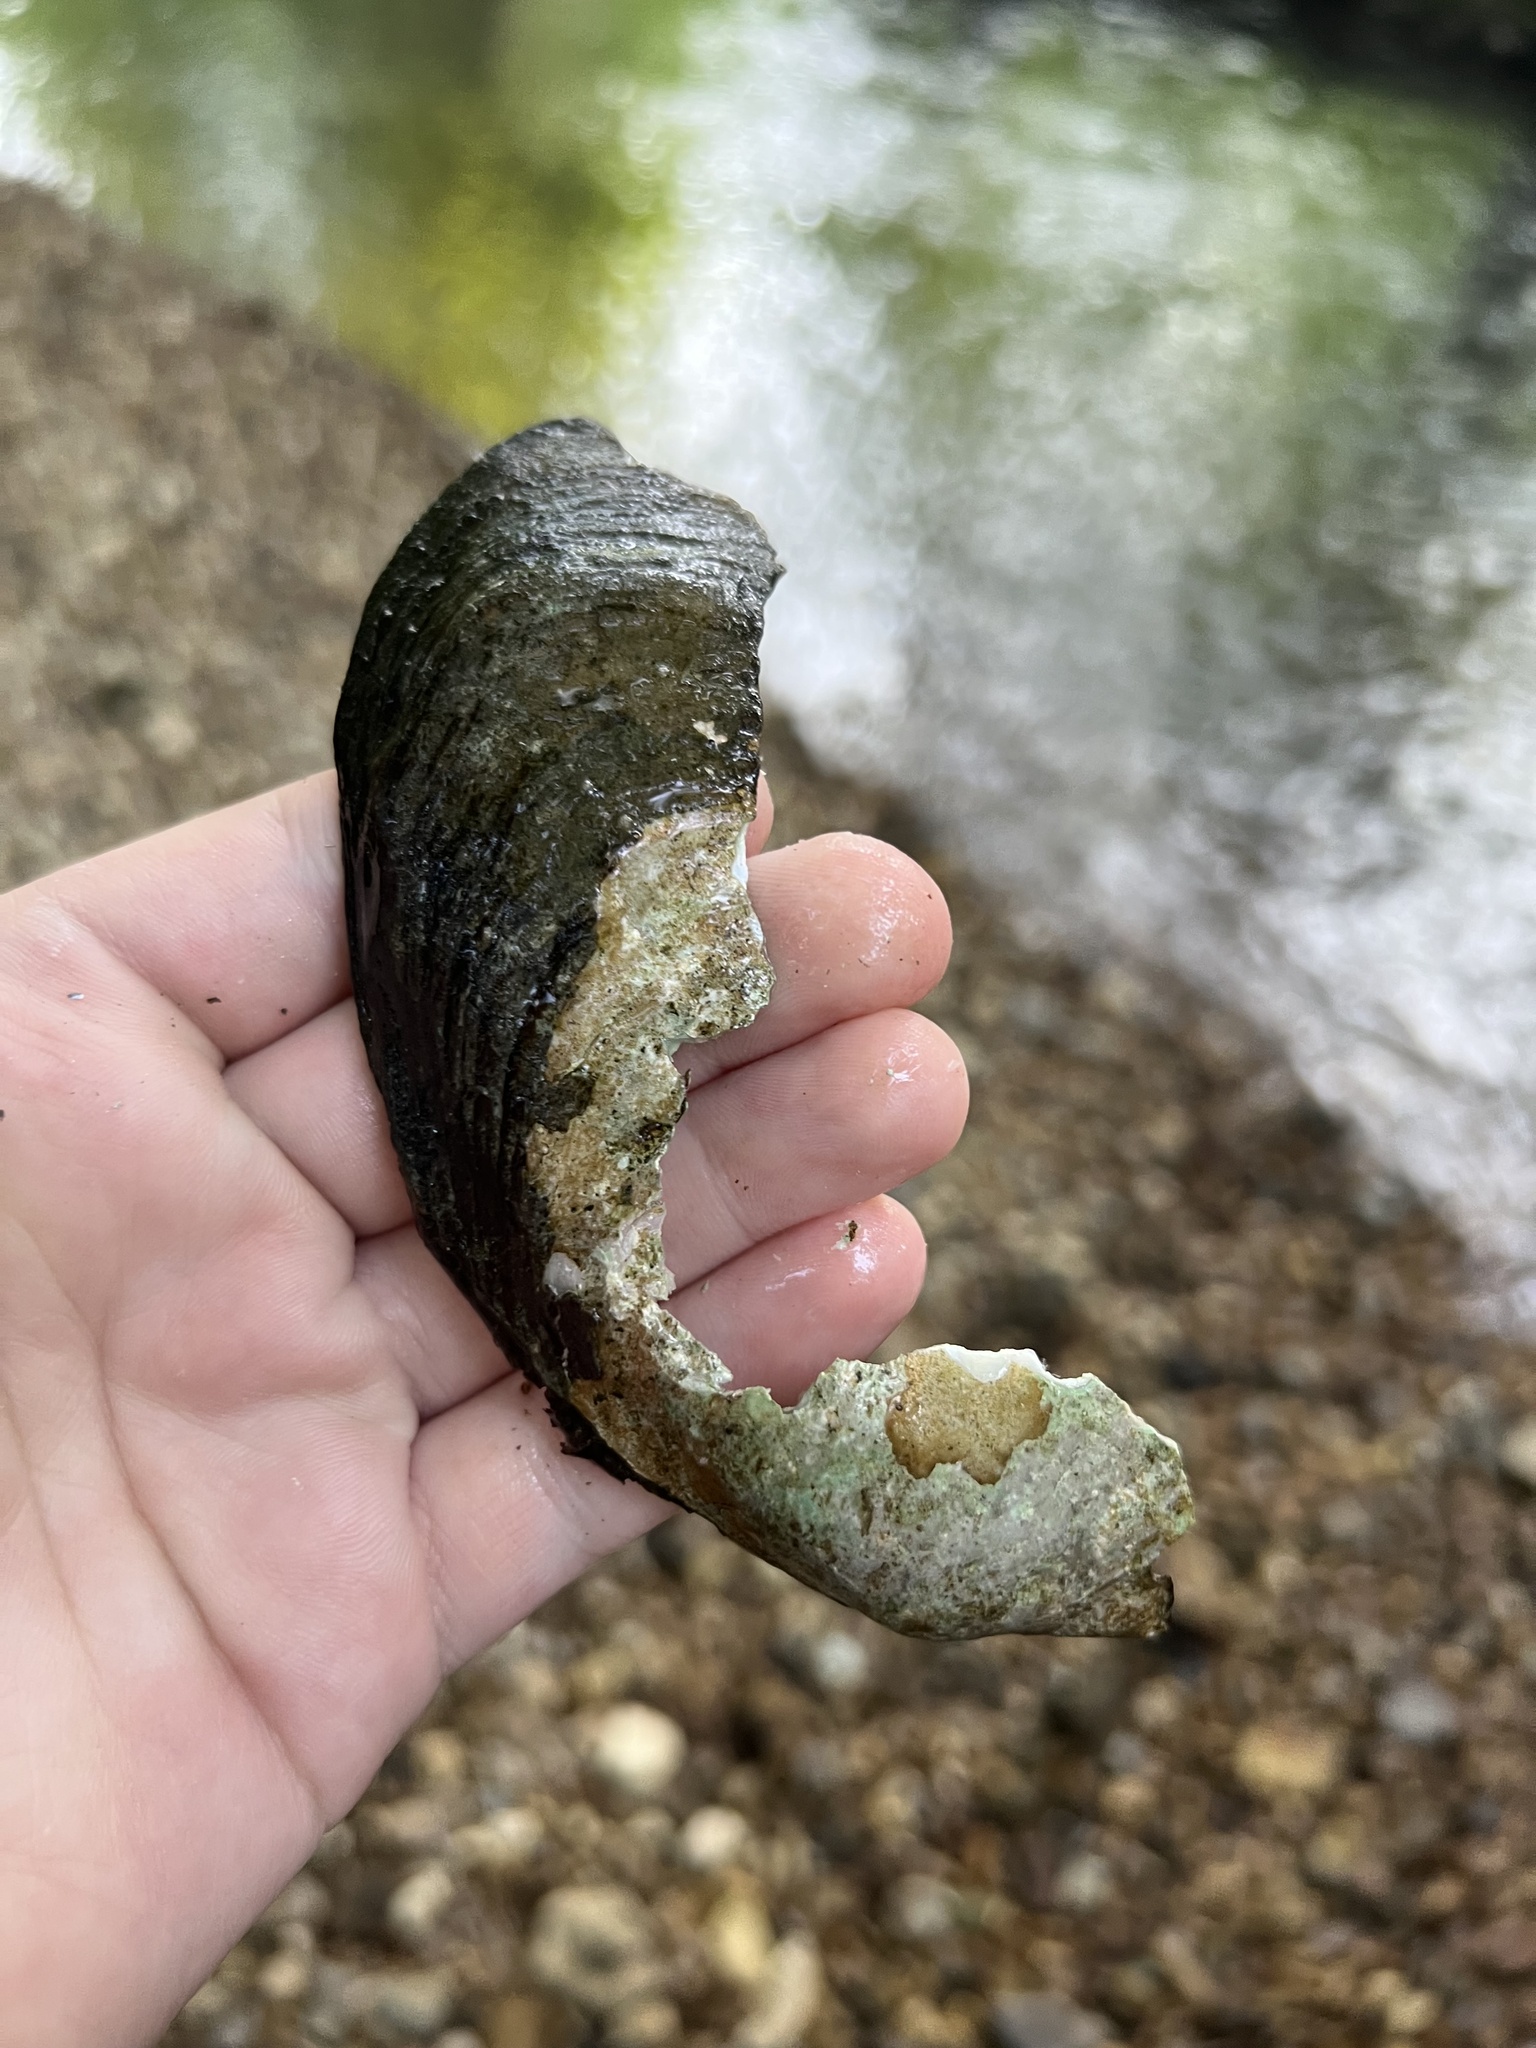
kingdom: Animalia
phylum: Mollusca
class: Bivalvia
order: Unionida
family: Unionidae
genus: Potamilus
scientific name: Potamilus fragilis
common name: Fragile papershell
